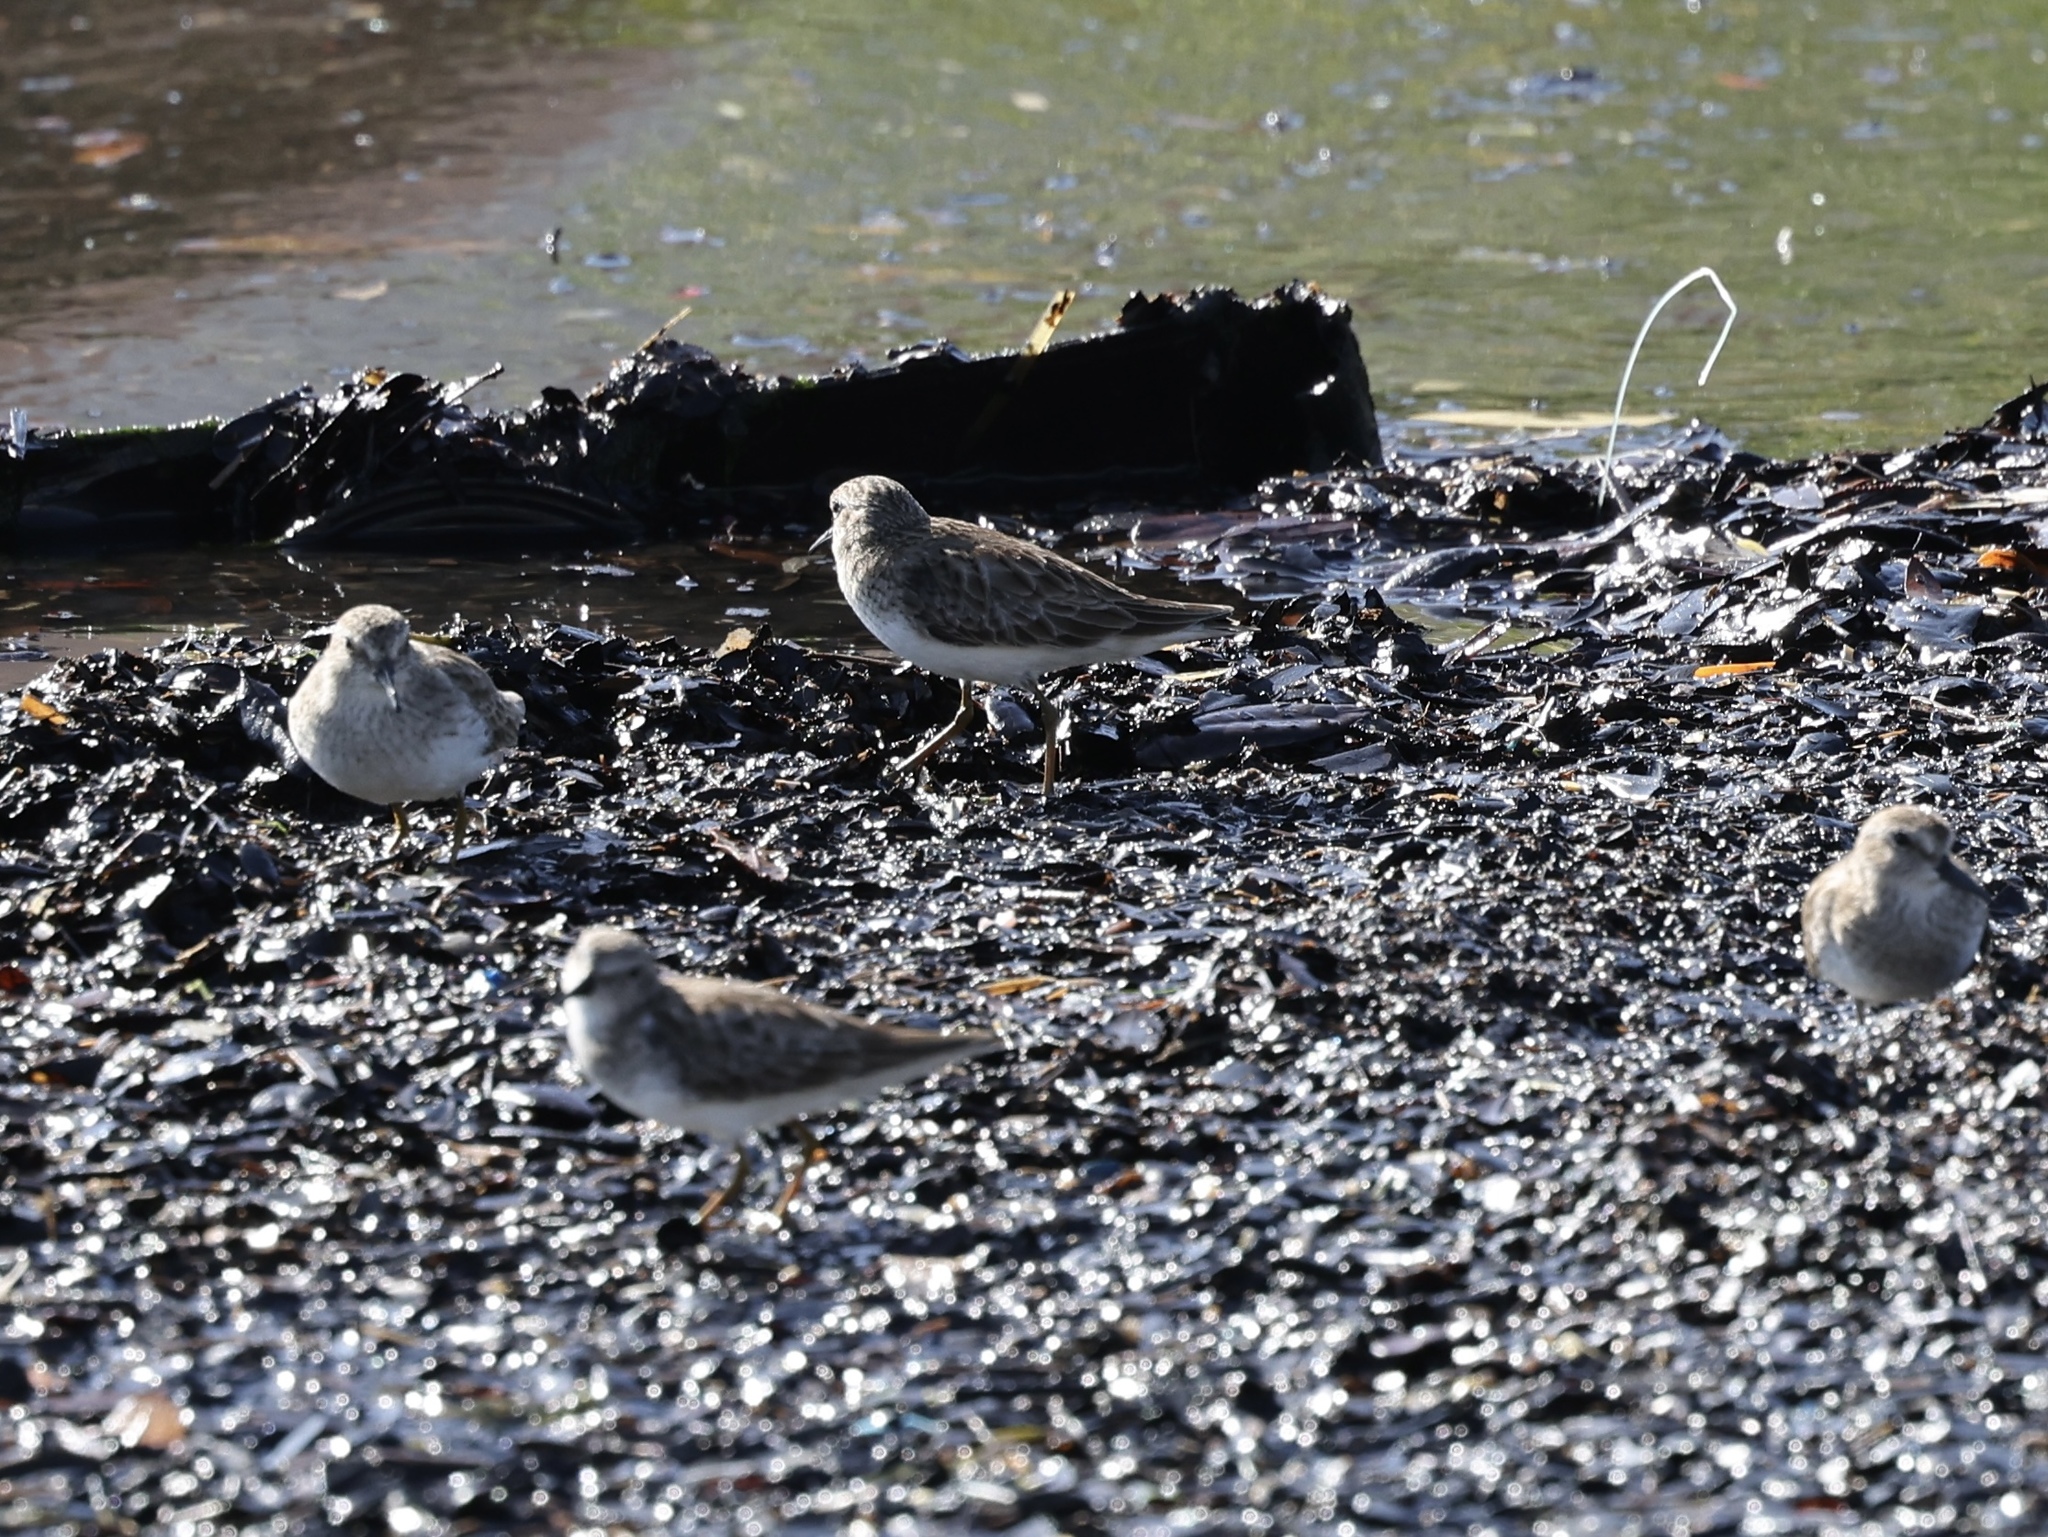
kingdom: Animalia
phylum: Chordata
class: Aves
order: Charadriiformes
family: Scolopacidae
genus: Calidris
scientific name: Calidris minutilla
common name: Least sandpiper
